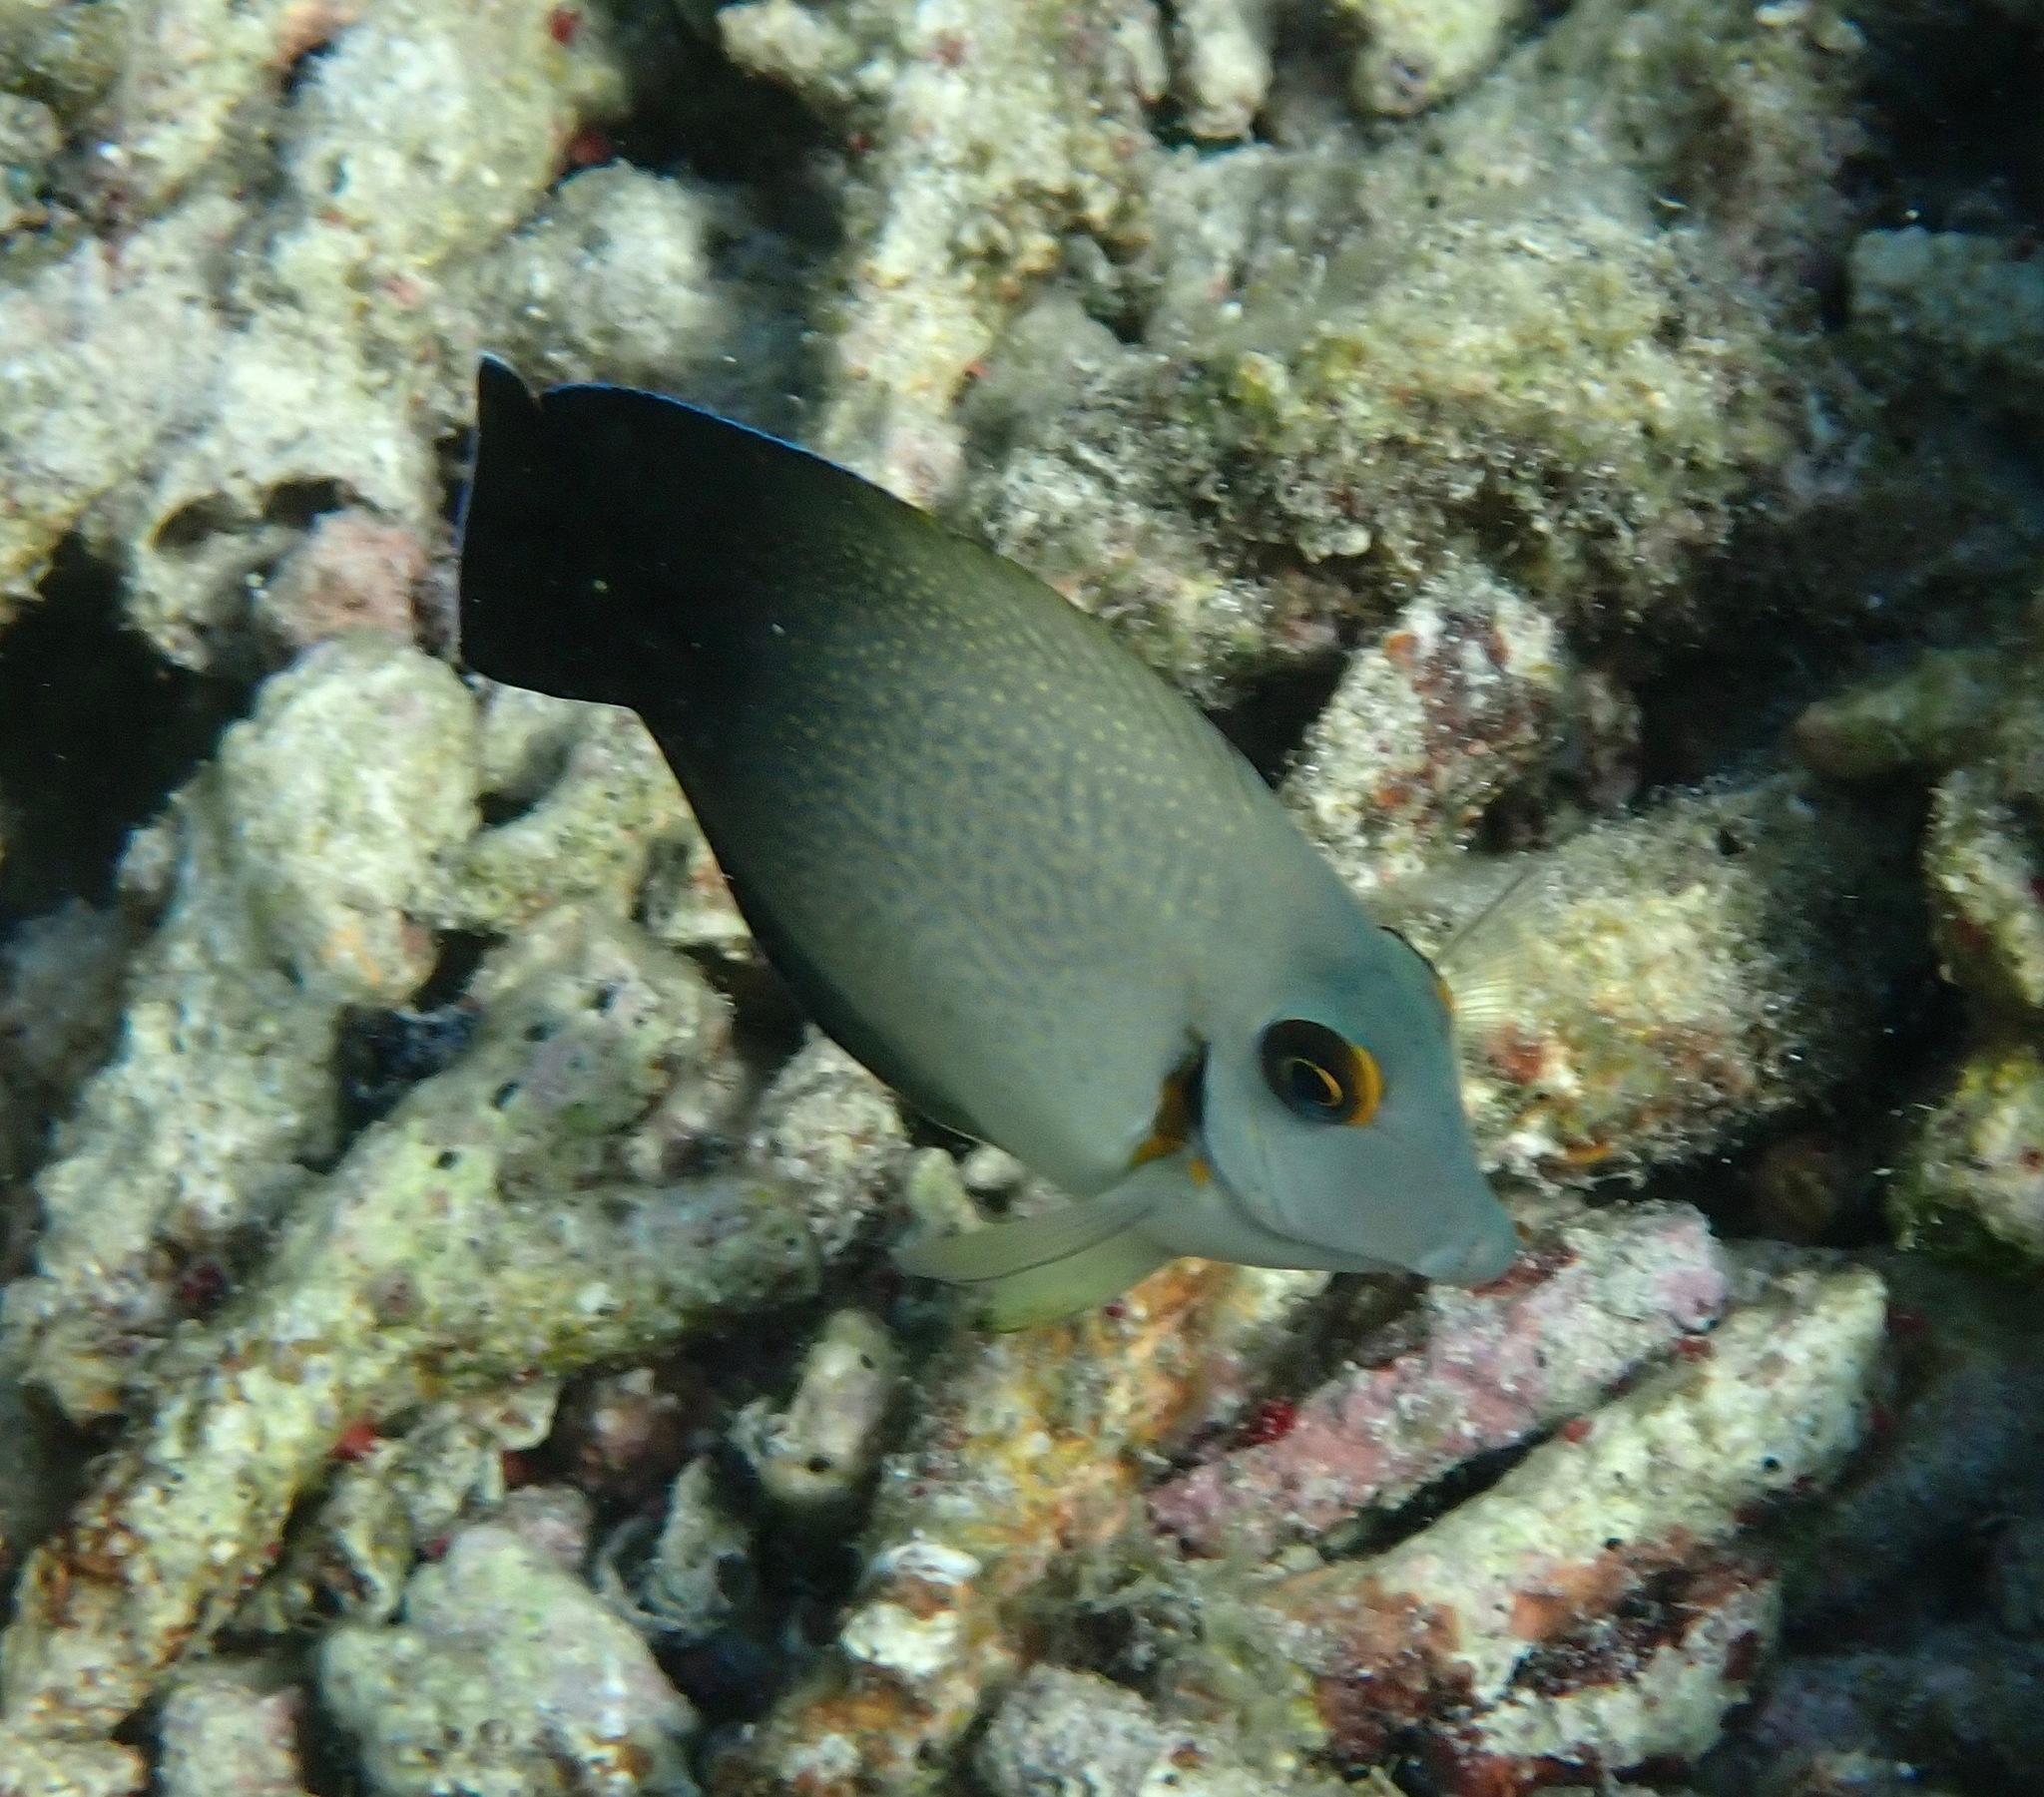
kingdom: Animalia
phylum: Chordata
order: Perciformes
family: Acanthuridae
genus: Acanthurus
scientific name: Acanthurus pyroferus
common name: Chocolate surgeonfish
